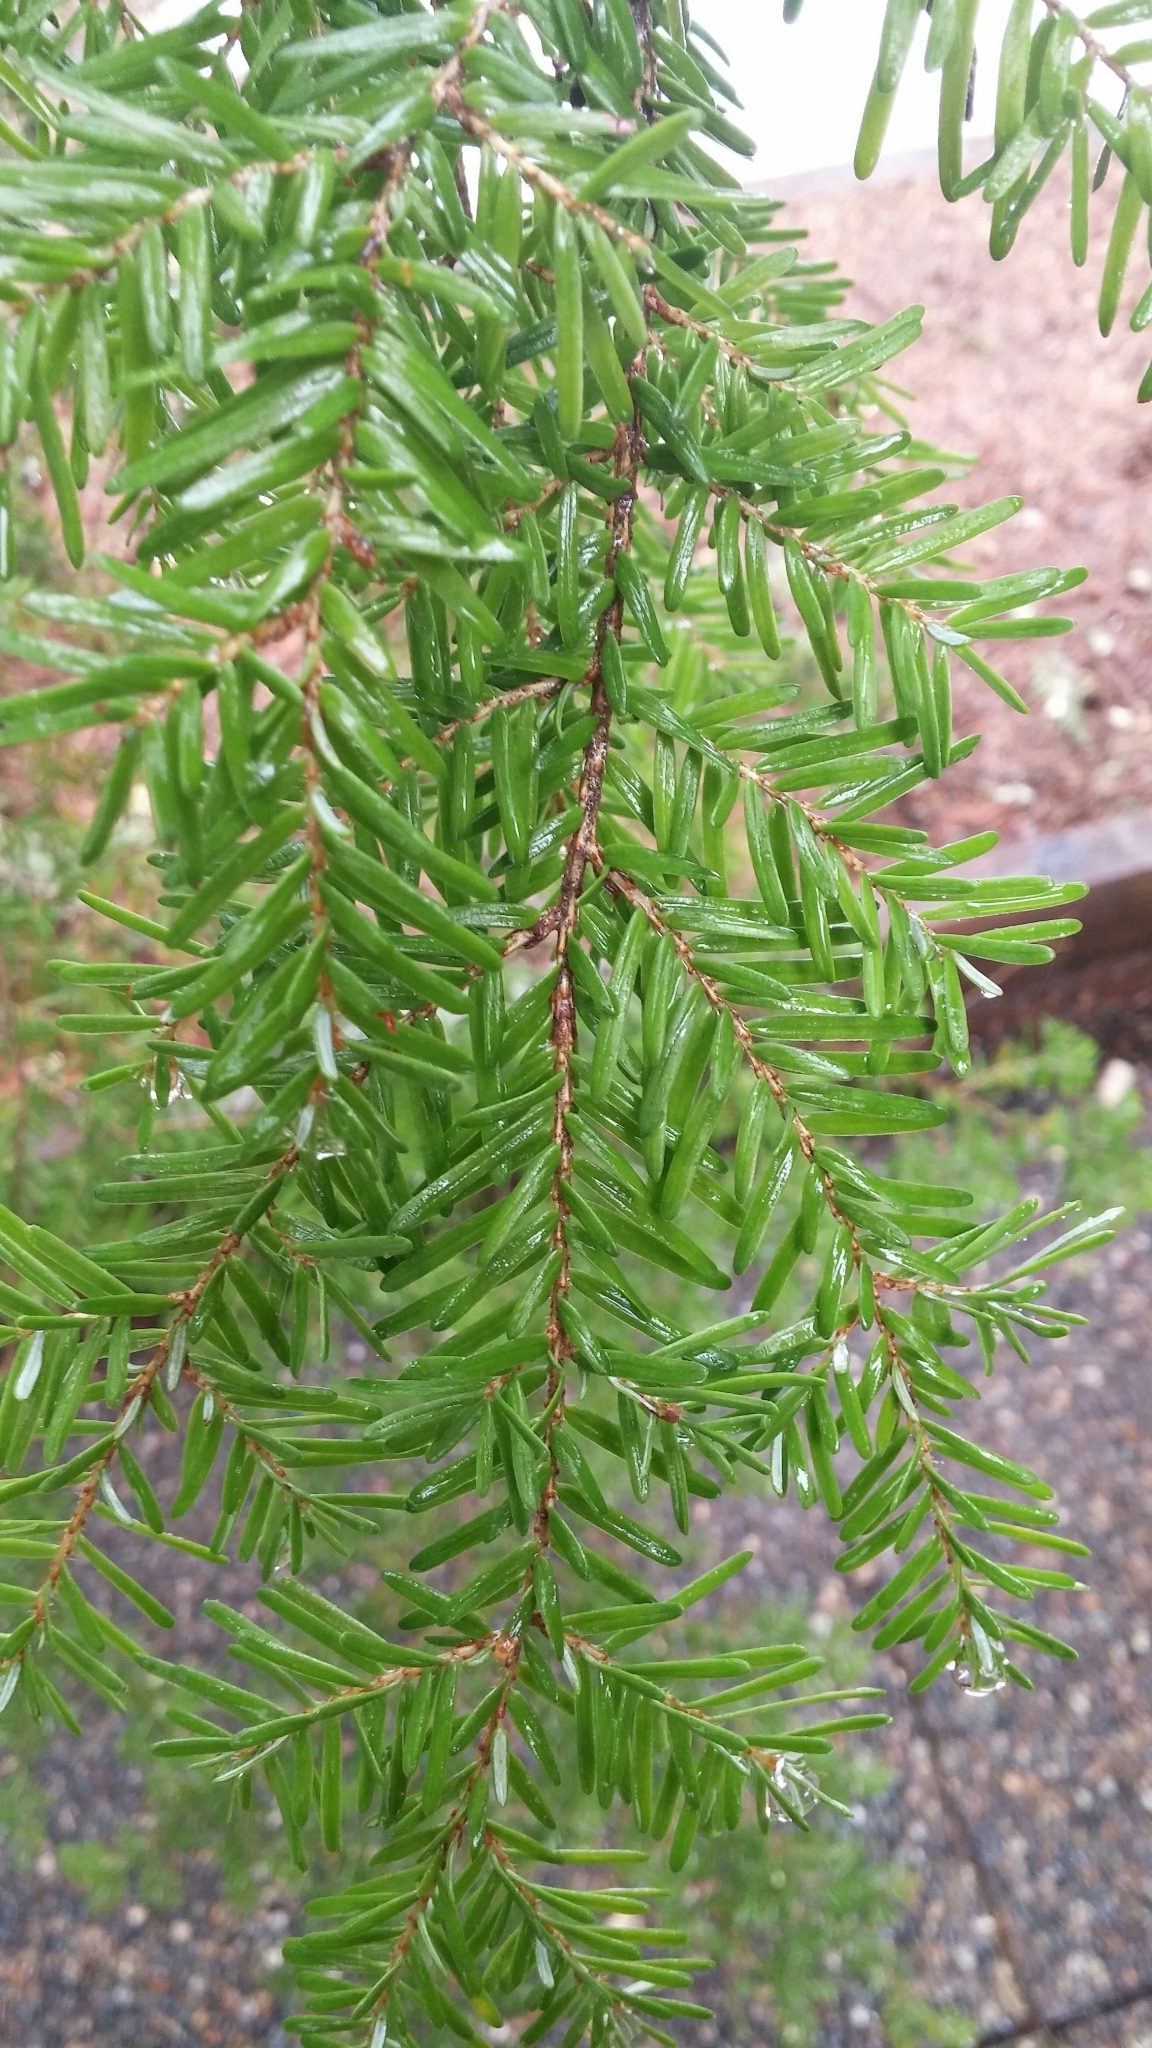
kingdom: Plantae
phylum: Tracheophyta
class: Pinopsida
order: Pinales
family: Pinaceae
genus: Tsuga
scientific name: Tsuga heterophylla
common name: Western hemlock
